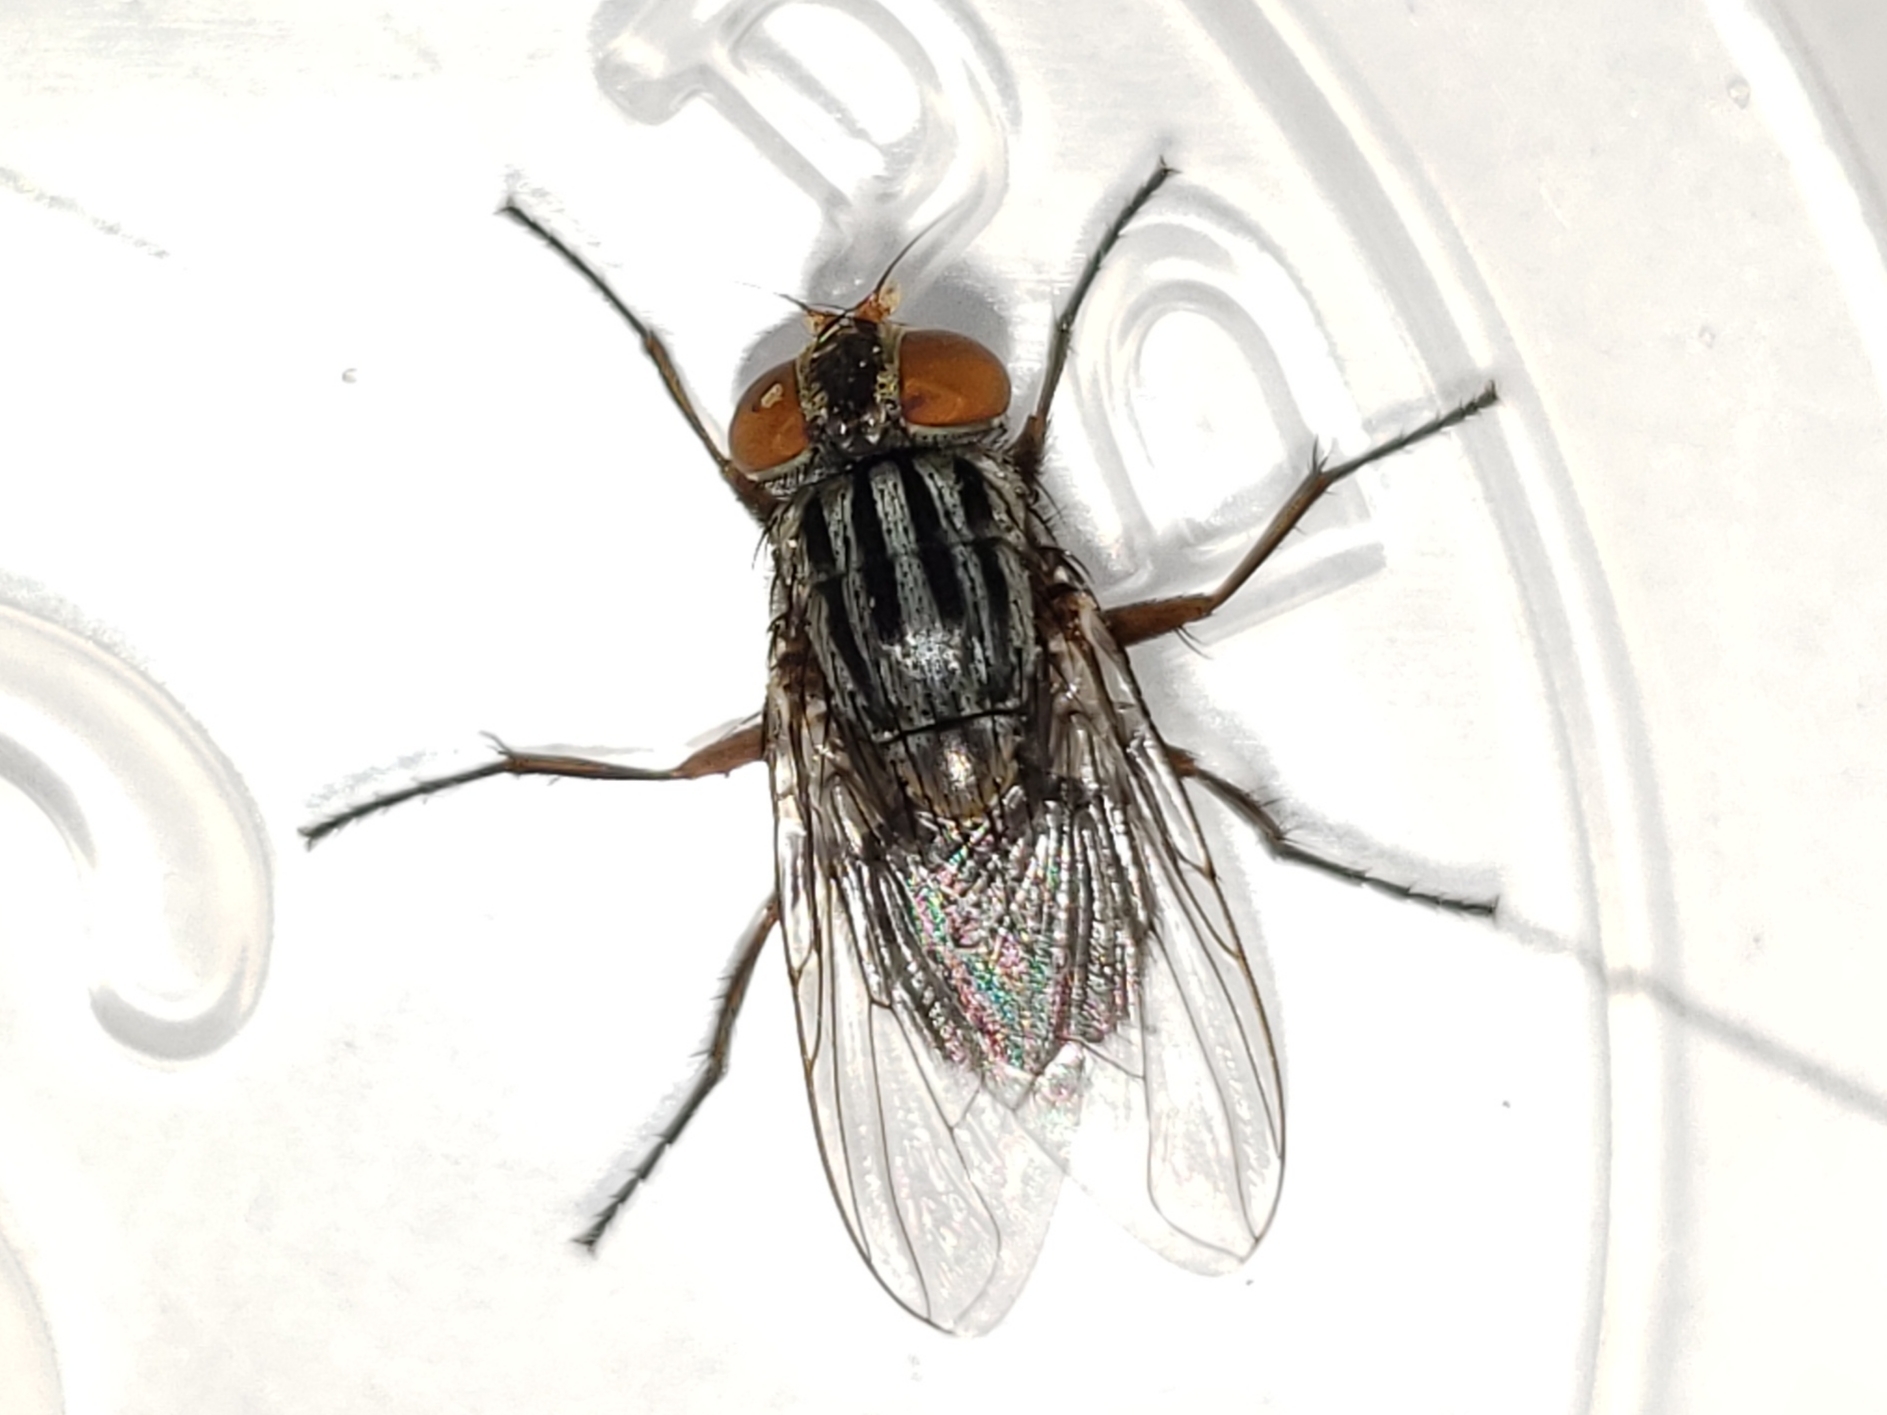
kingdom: Animalia
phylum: Arthropoda
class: Insecta
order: Diptera
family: Muscidae
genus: Synthesiomyia
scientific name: Synthesiomyia nudiseta
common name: Fly
